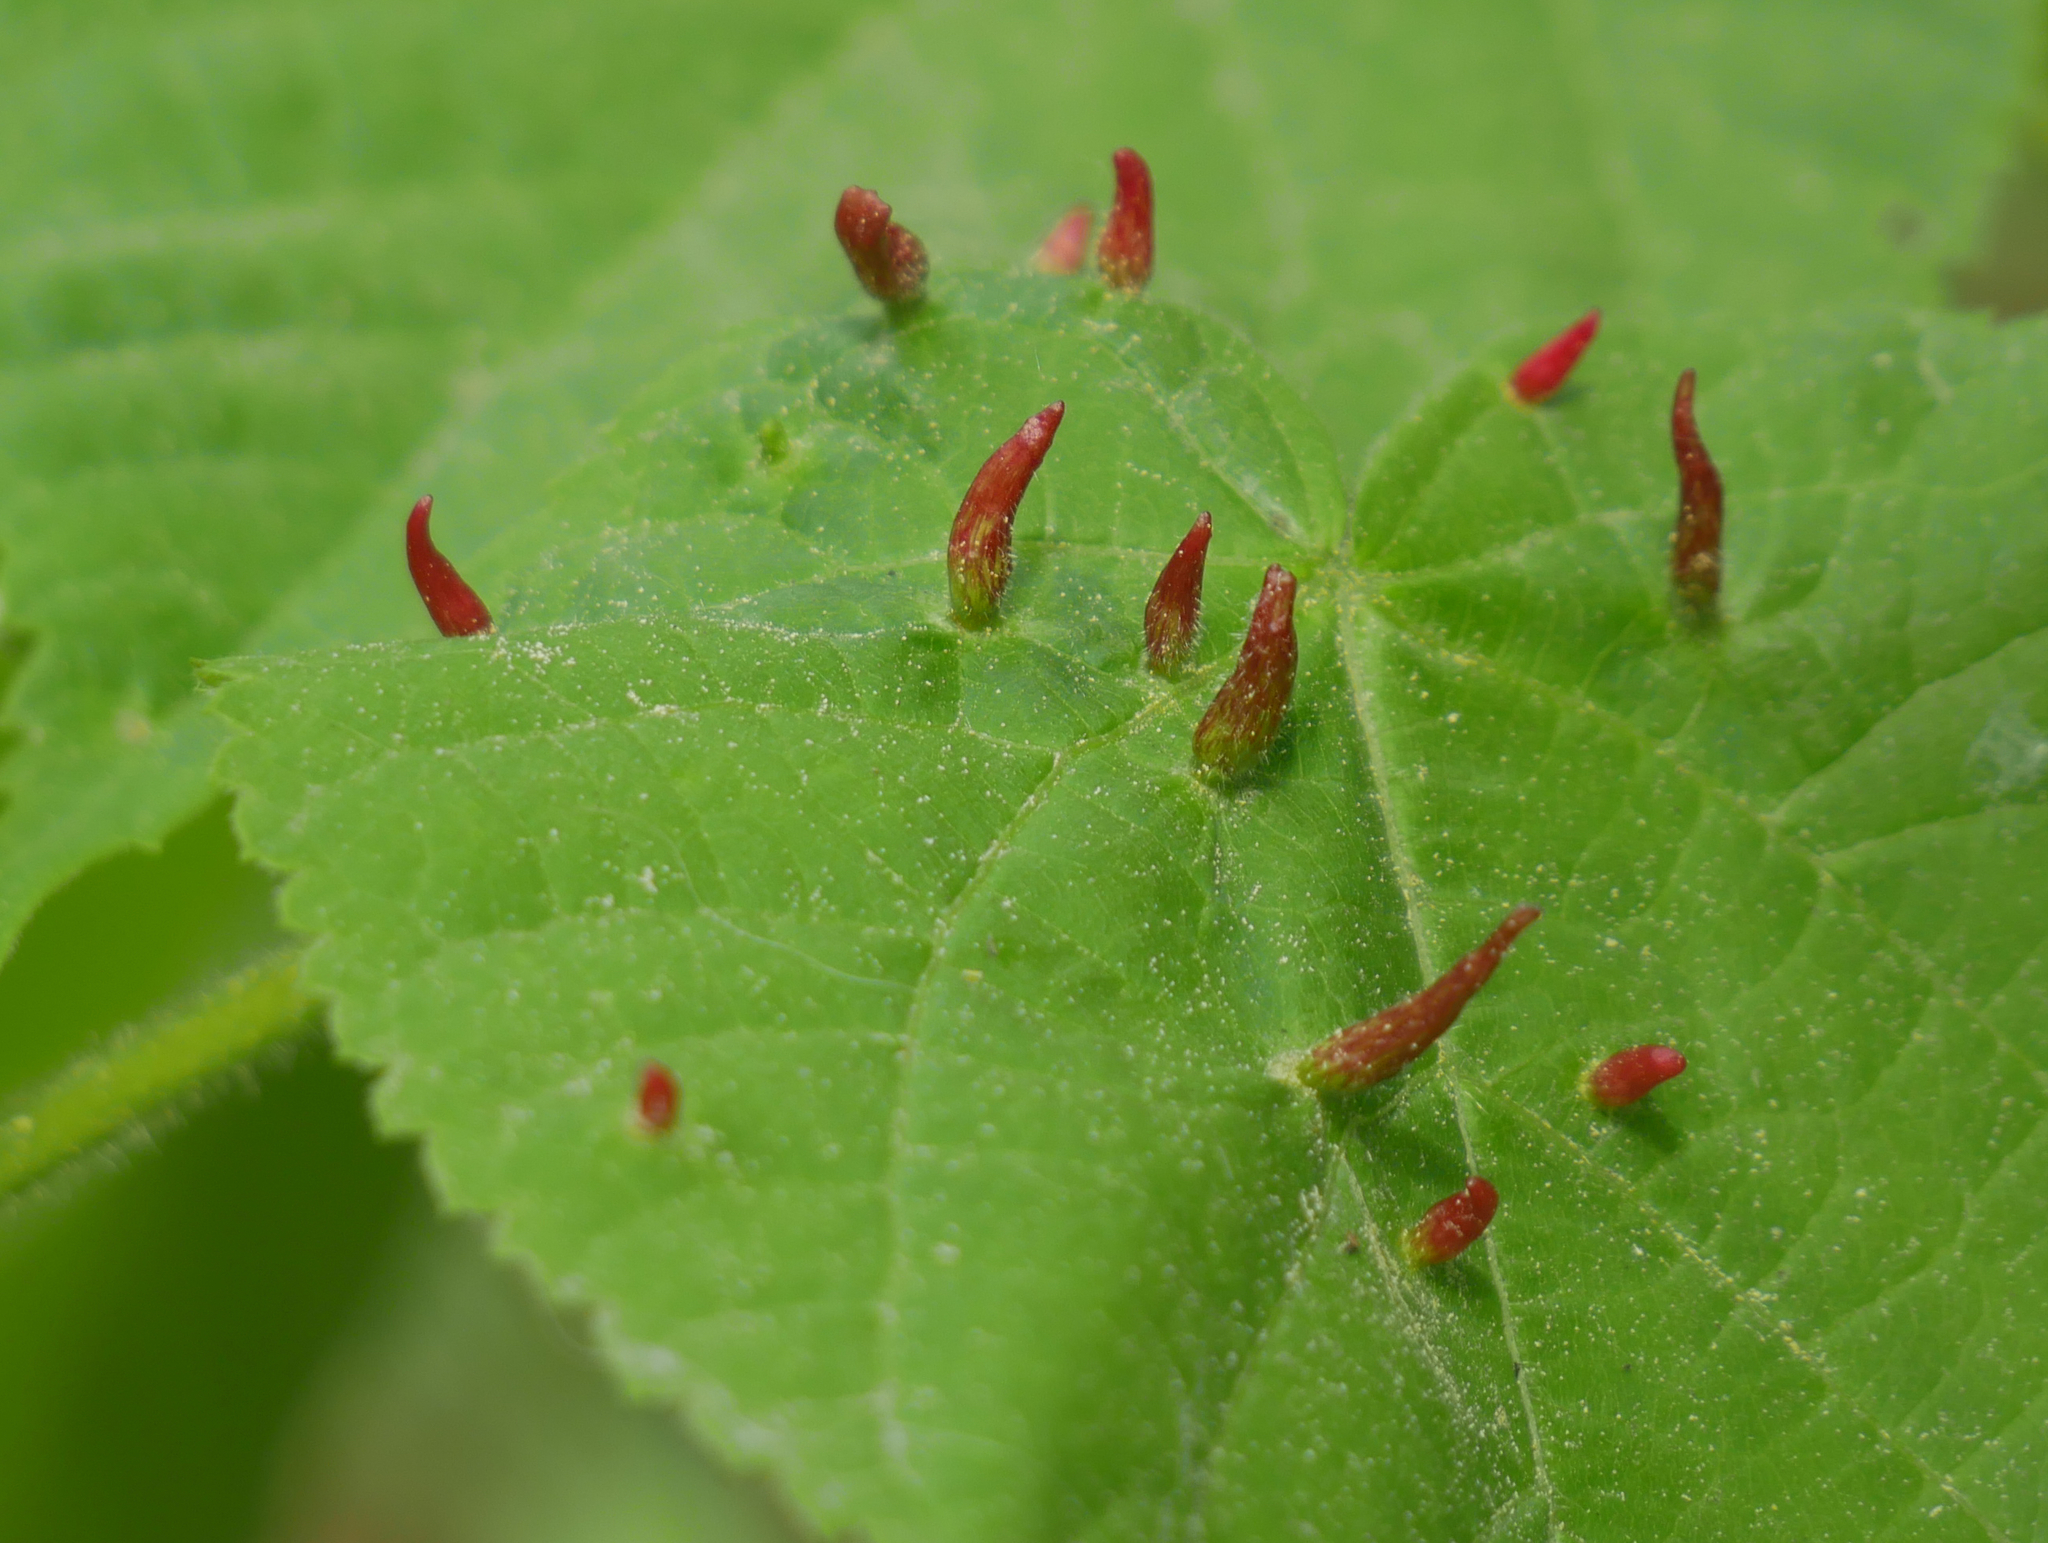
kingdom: Animalia
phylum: Arthropoda
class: Arachnida
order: Trombidiformes
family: Eriophyidae
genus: Eriophyes
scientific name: Eriophyes tiliae
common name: Red nail gall mite
